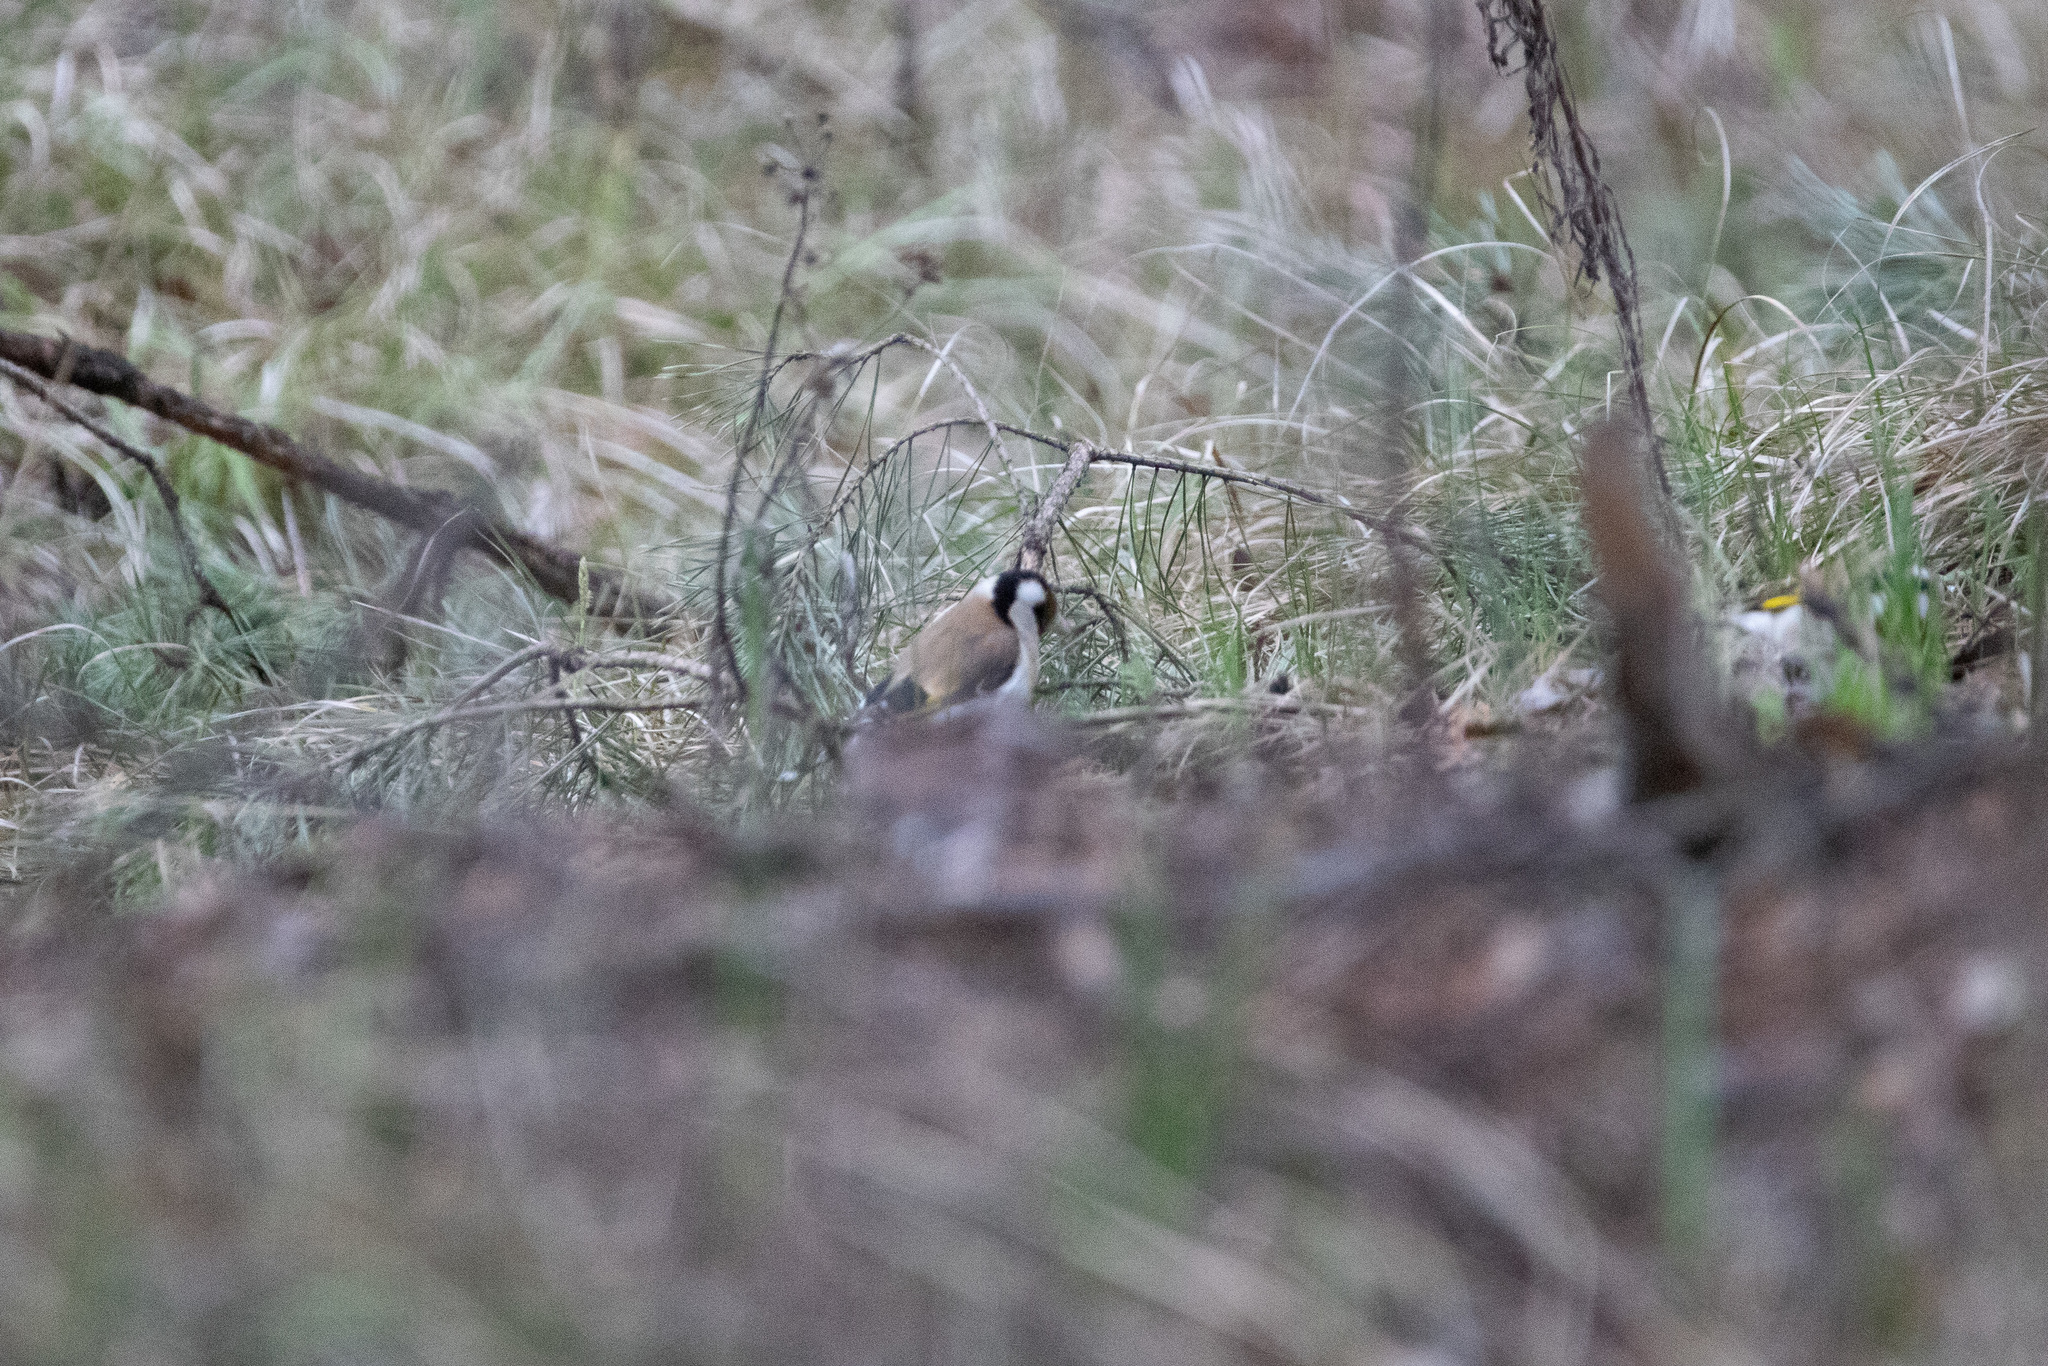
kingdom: Animalia
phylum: Chordata
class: Aves
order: Passeriformes
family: Fringillidae
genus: Carduelis
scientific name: Carduelis carduelis
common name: European goldfinch
